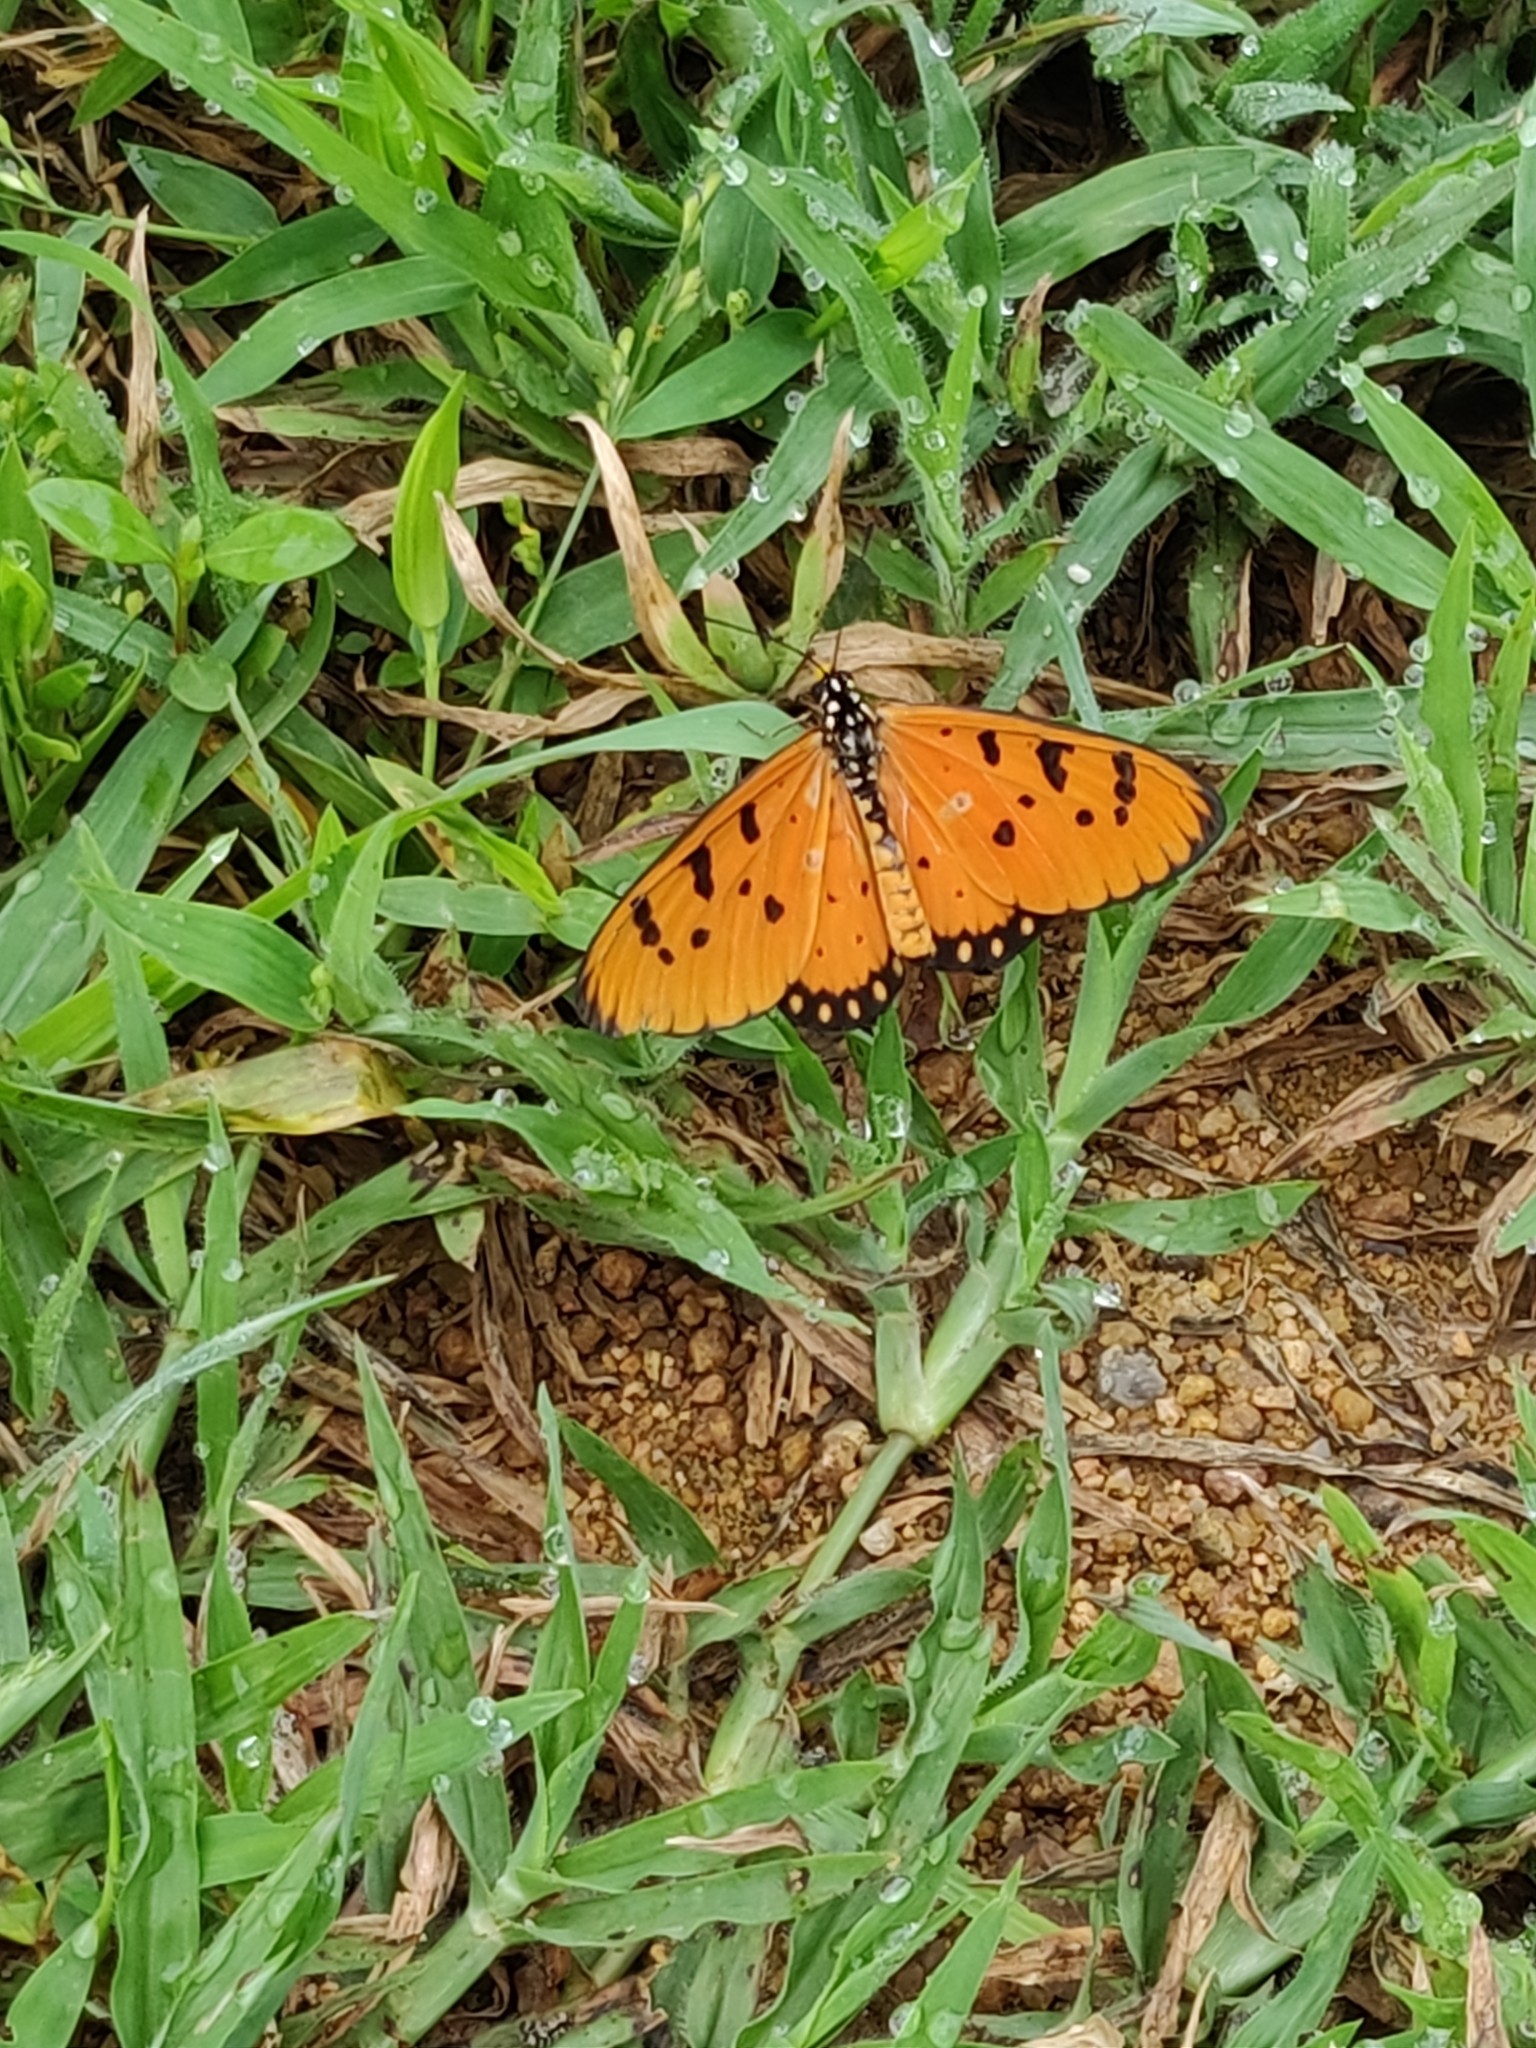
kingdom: Animalia
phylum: Arthropoda
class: Insecta
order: Lepidoptera
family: Nymphalidae
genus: Acraea
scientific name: Acraea terpsicore
